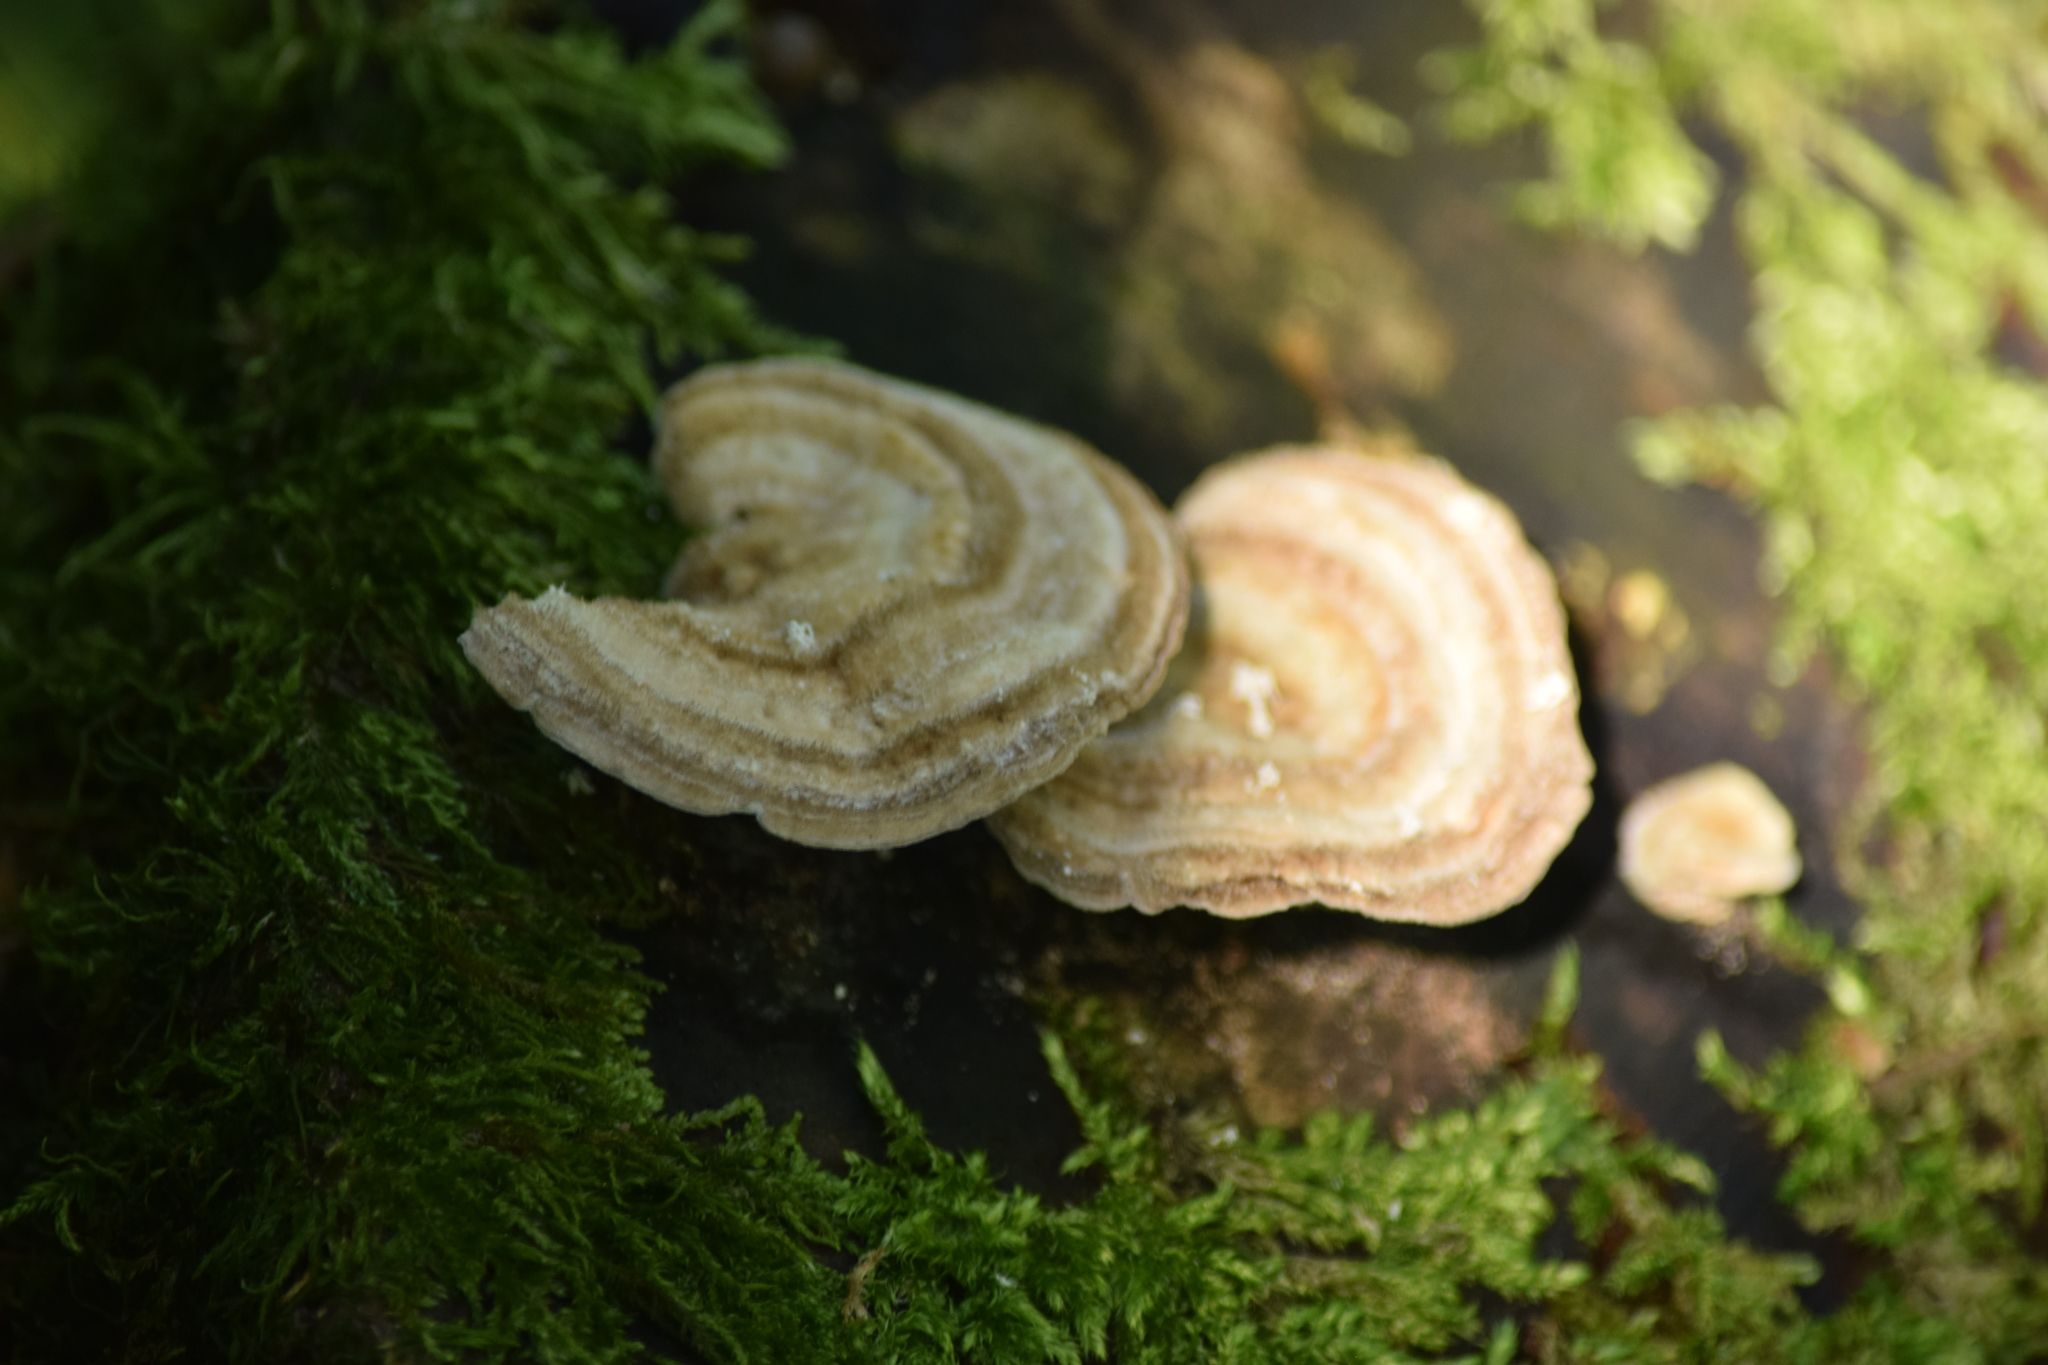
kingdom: Fungi
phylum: Basidiomycota
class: Agaricomycetes
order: Polyporales
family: Polyporaceae
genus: Lenzites
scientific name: Lenzites betulinus
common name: Birch mazegill
